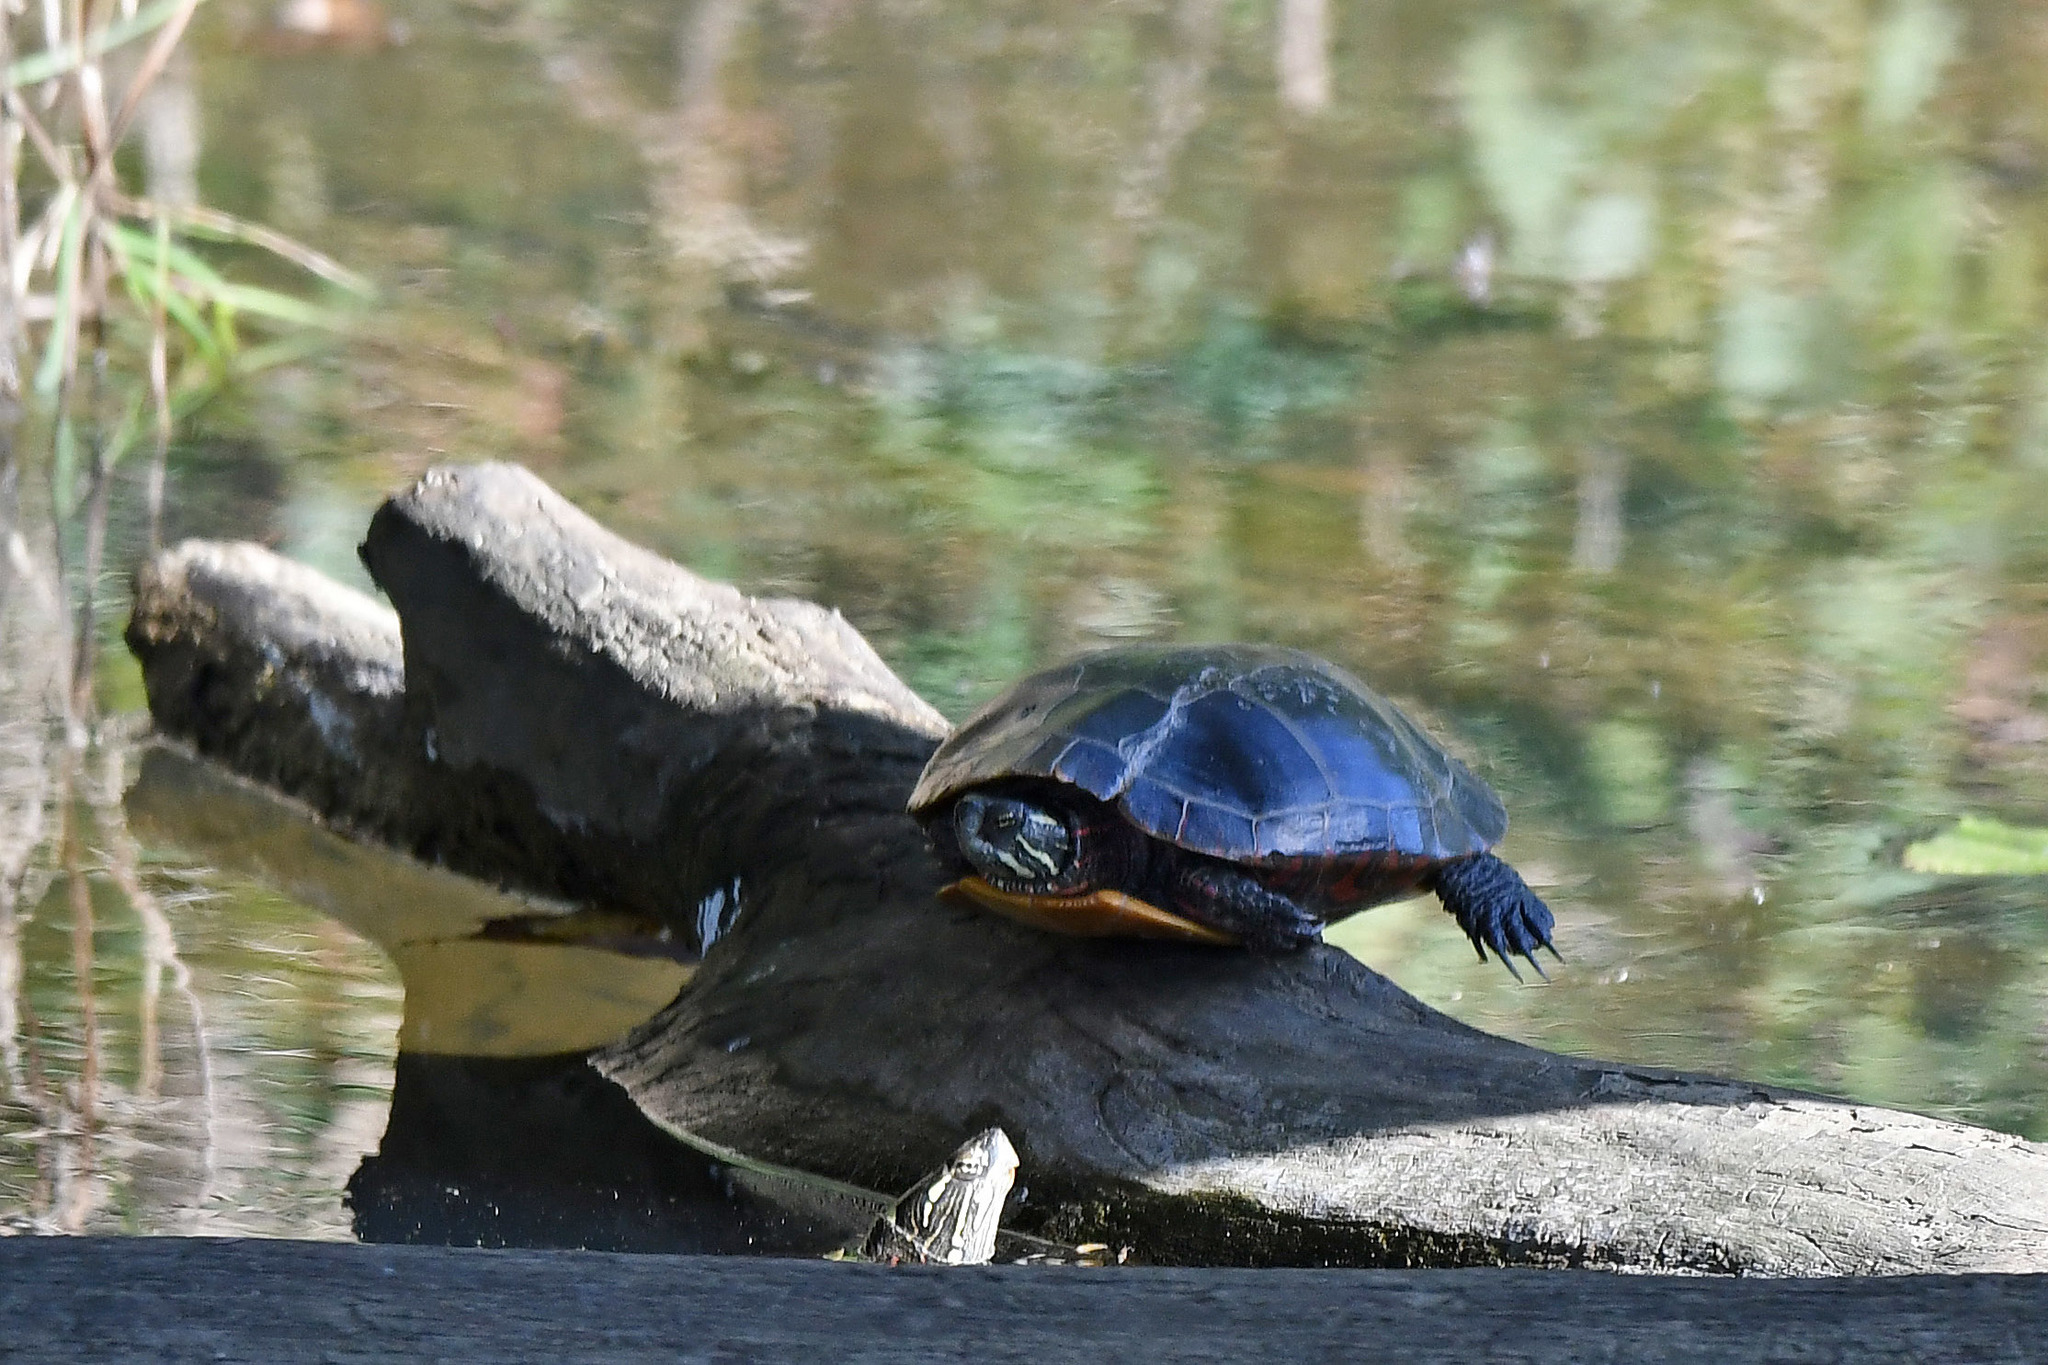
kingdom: Animalia
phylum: Chordata
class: Testudines
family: Emydidae
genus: Chrysemys
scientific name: Chrysemys picta
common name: Painted turtle
